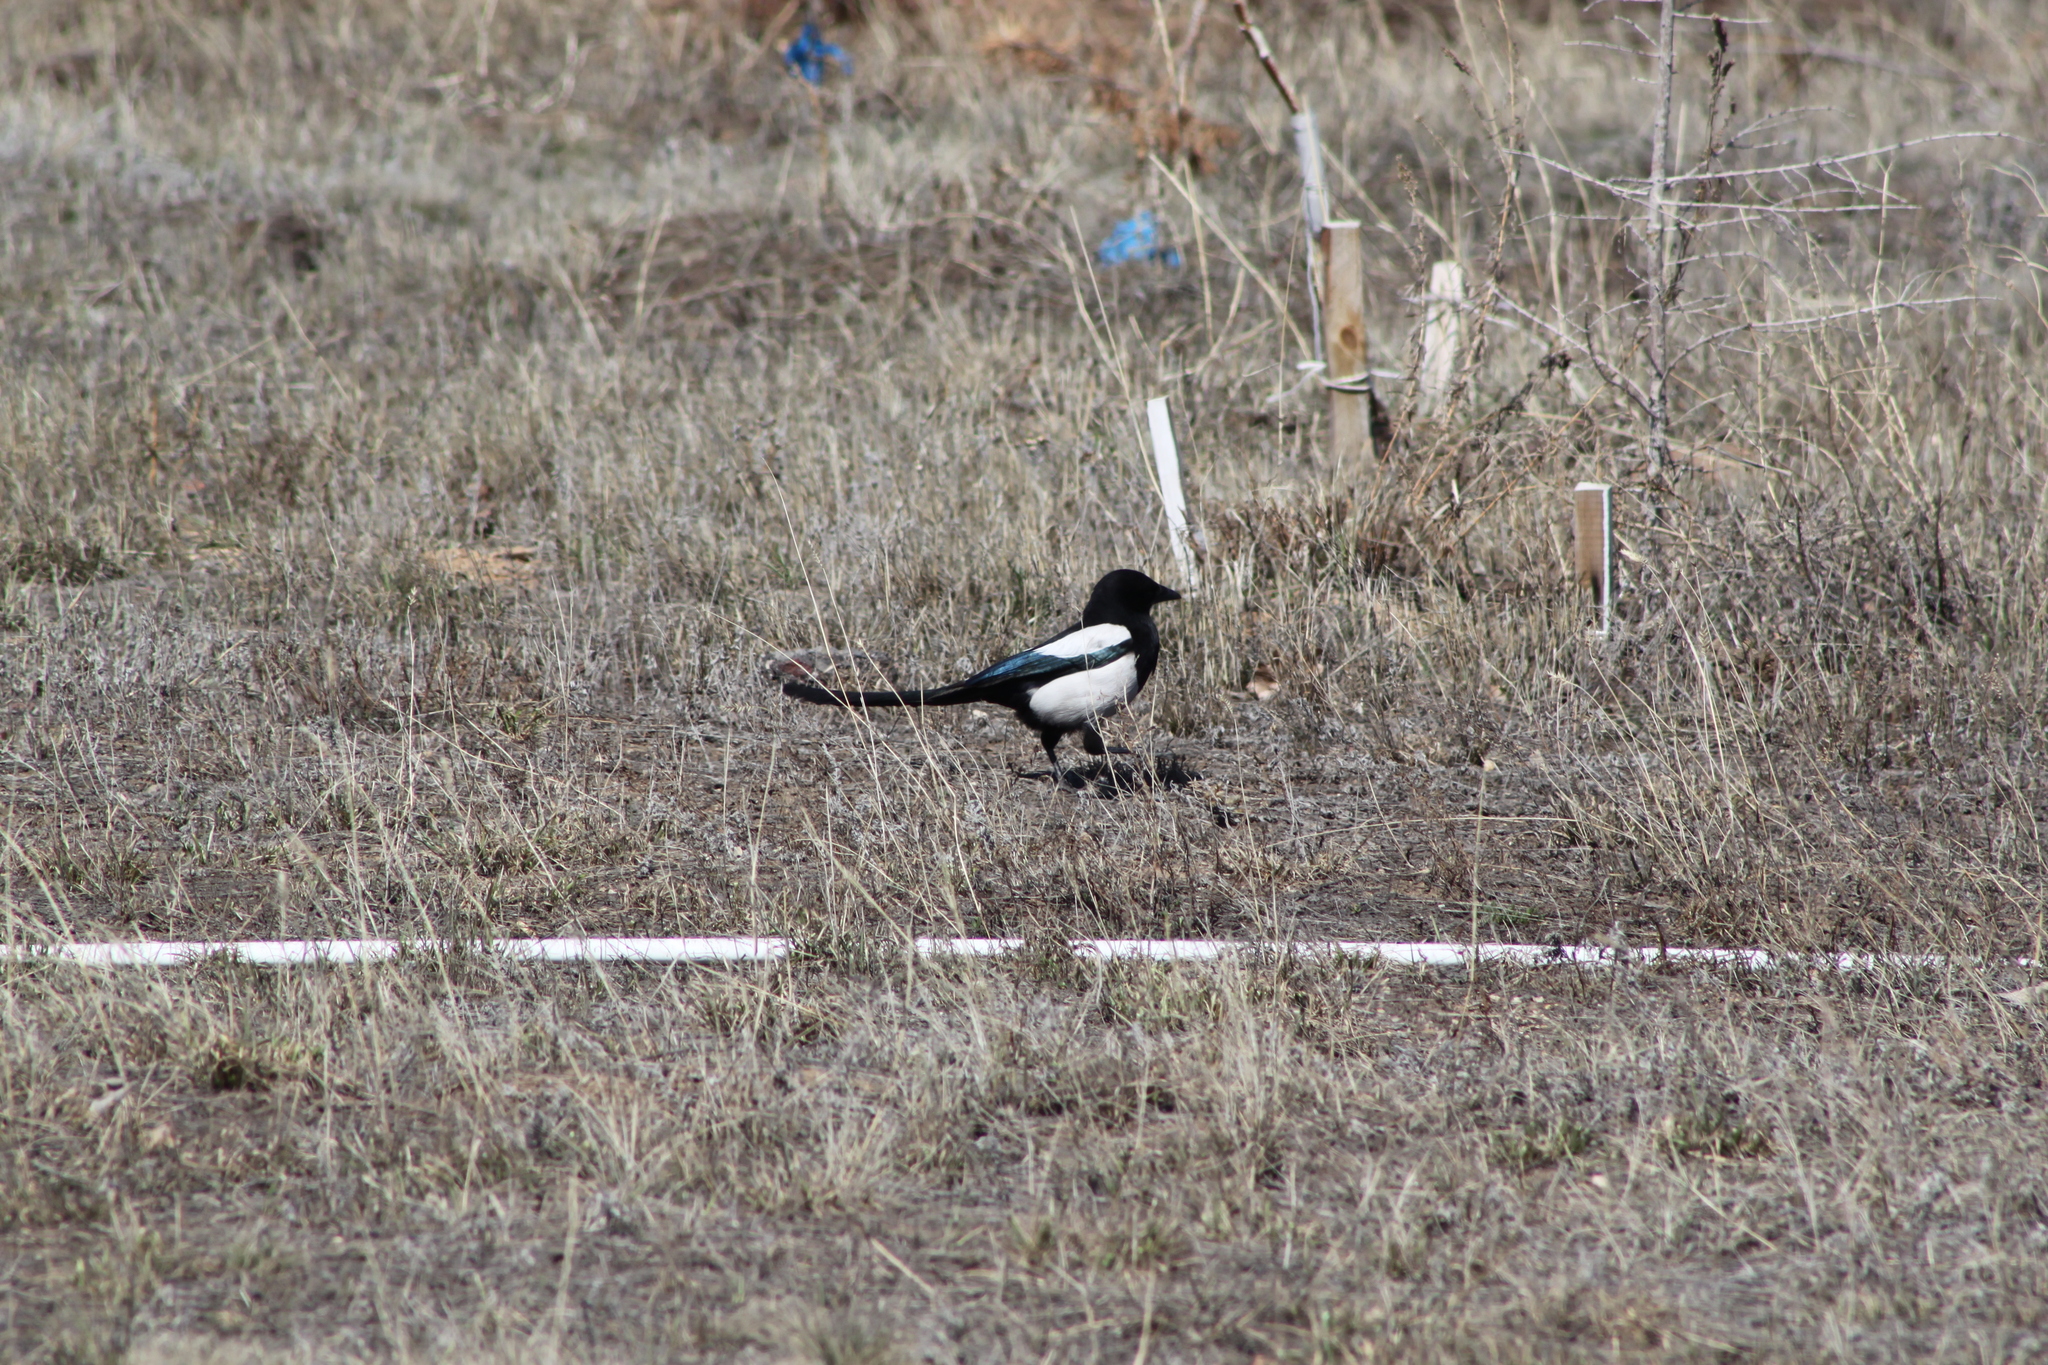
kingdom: Animalia
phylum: Chordata
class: Aves
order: Passeriformes
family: Corvidae
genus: Pica
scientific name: Pica pica
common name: Eurasian magpie
